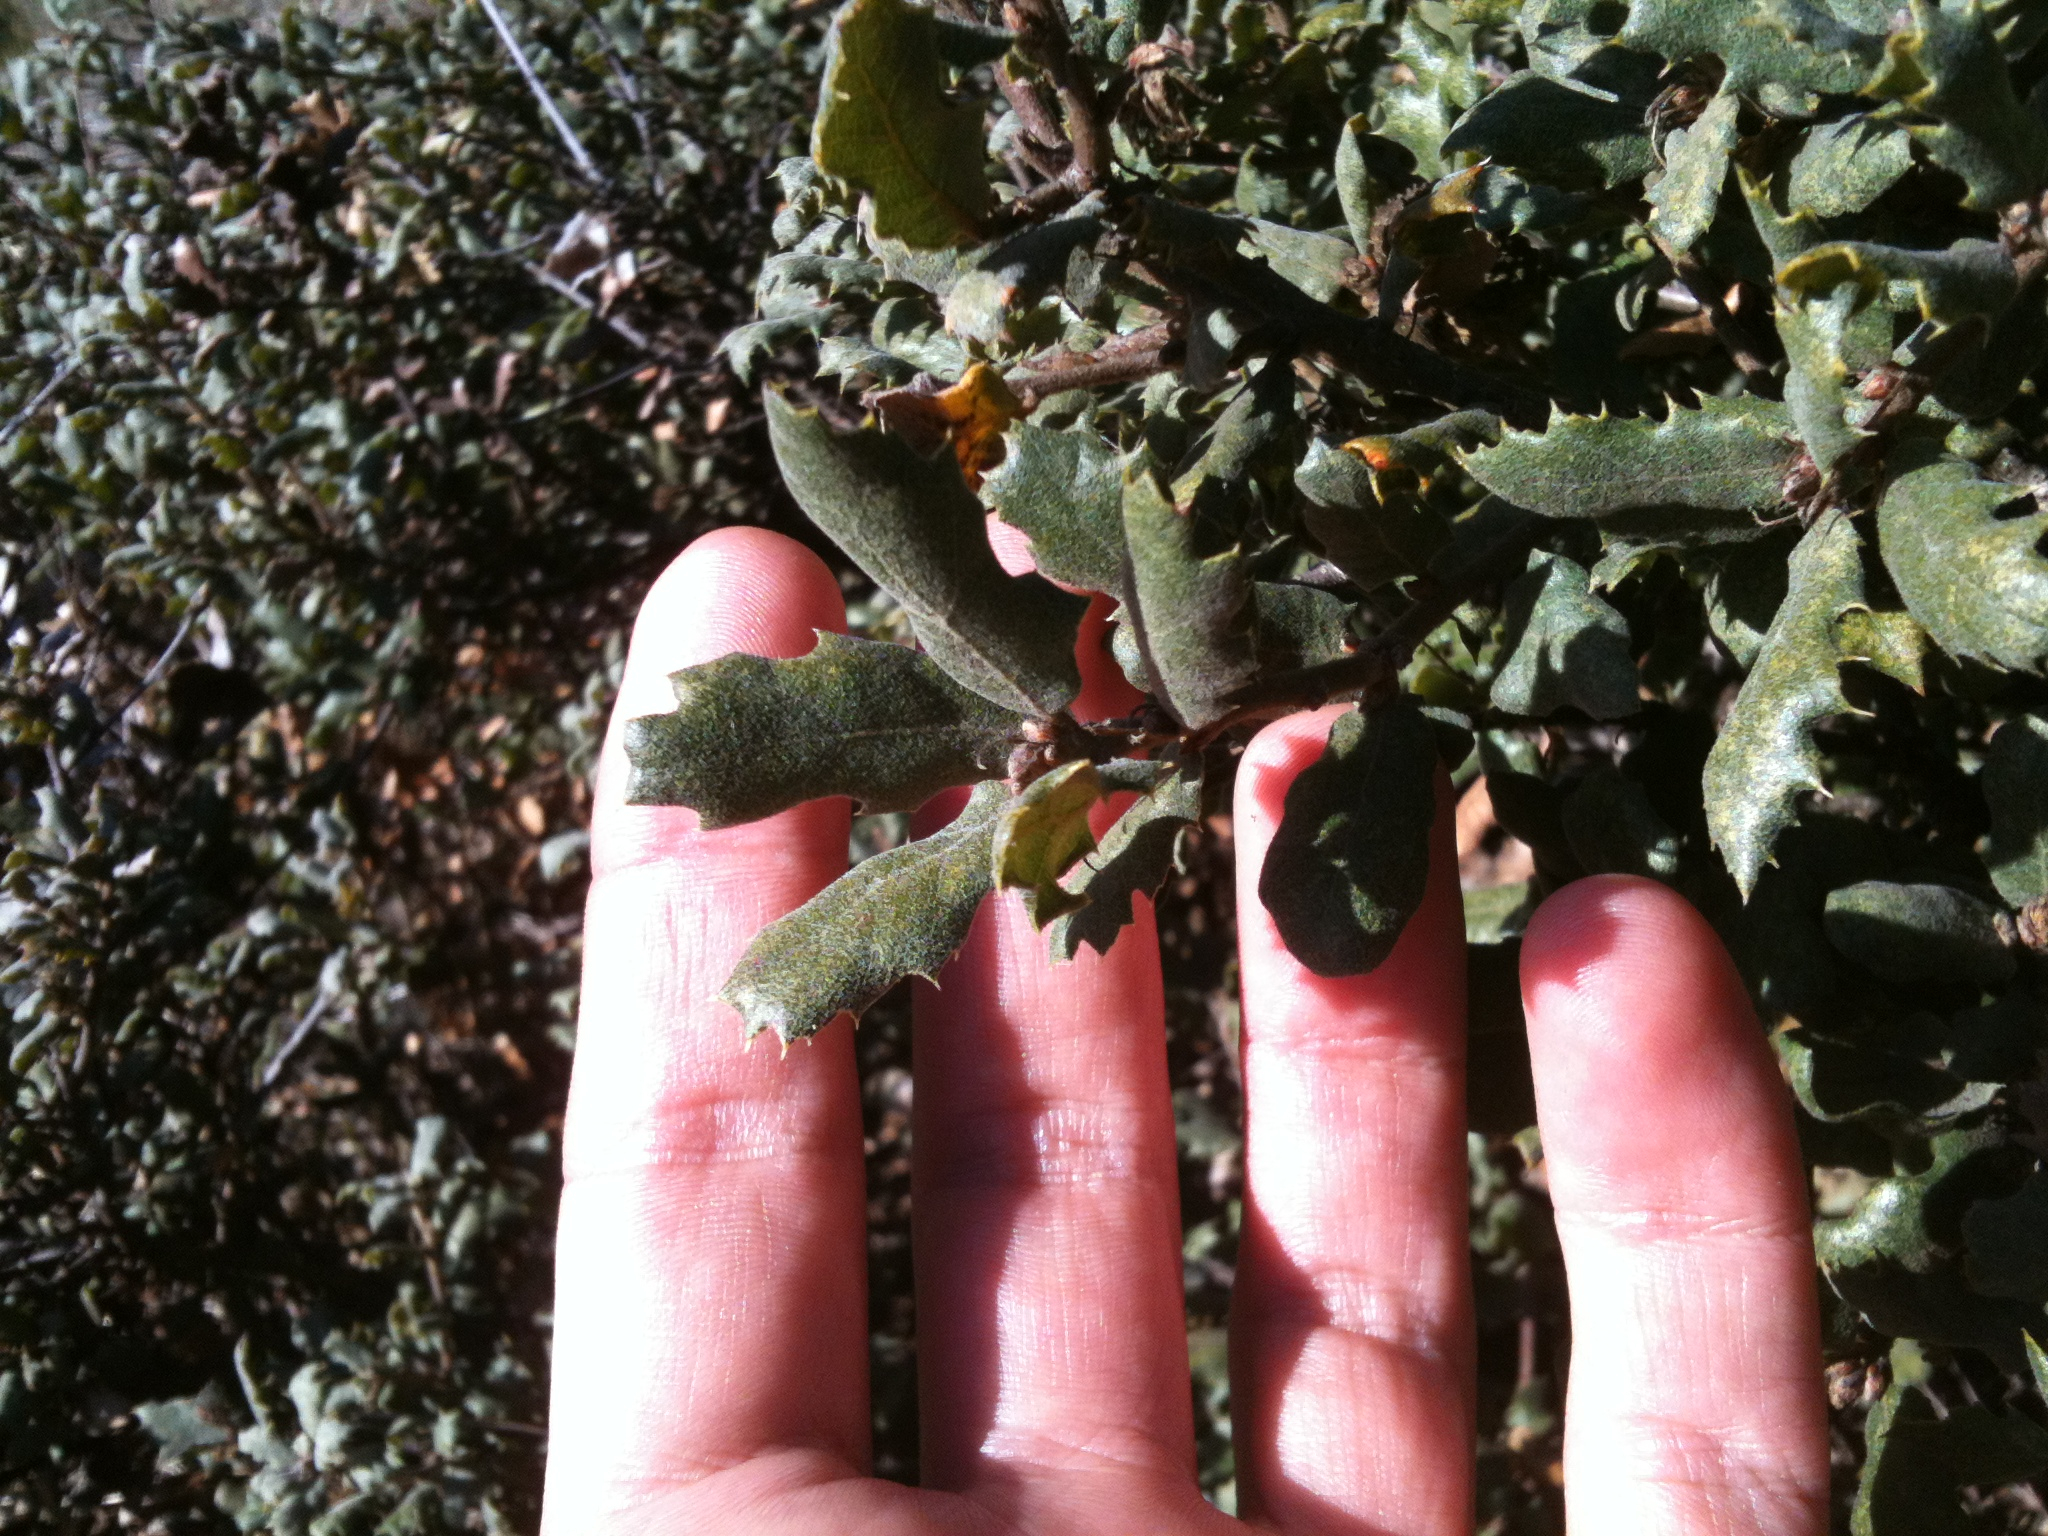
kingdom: Plantae
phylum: Tracheophyta
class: Magnoliopsida
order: Fagales
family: Fagaceae
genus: Quercus
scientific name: Quercus durata
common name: Leather oak
